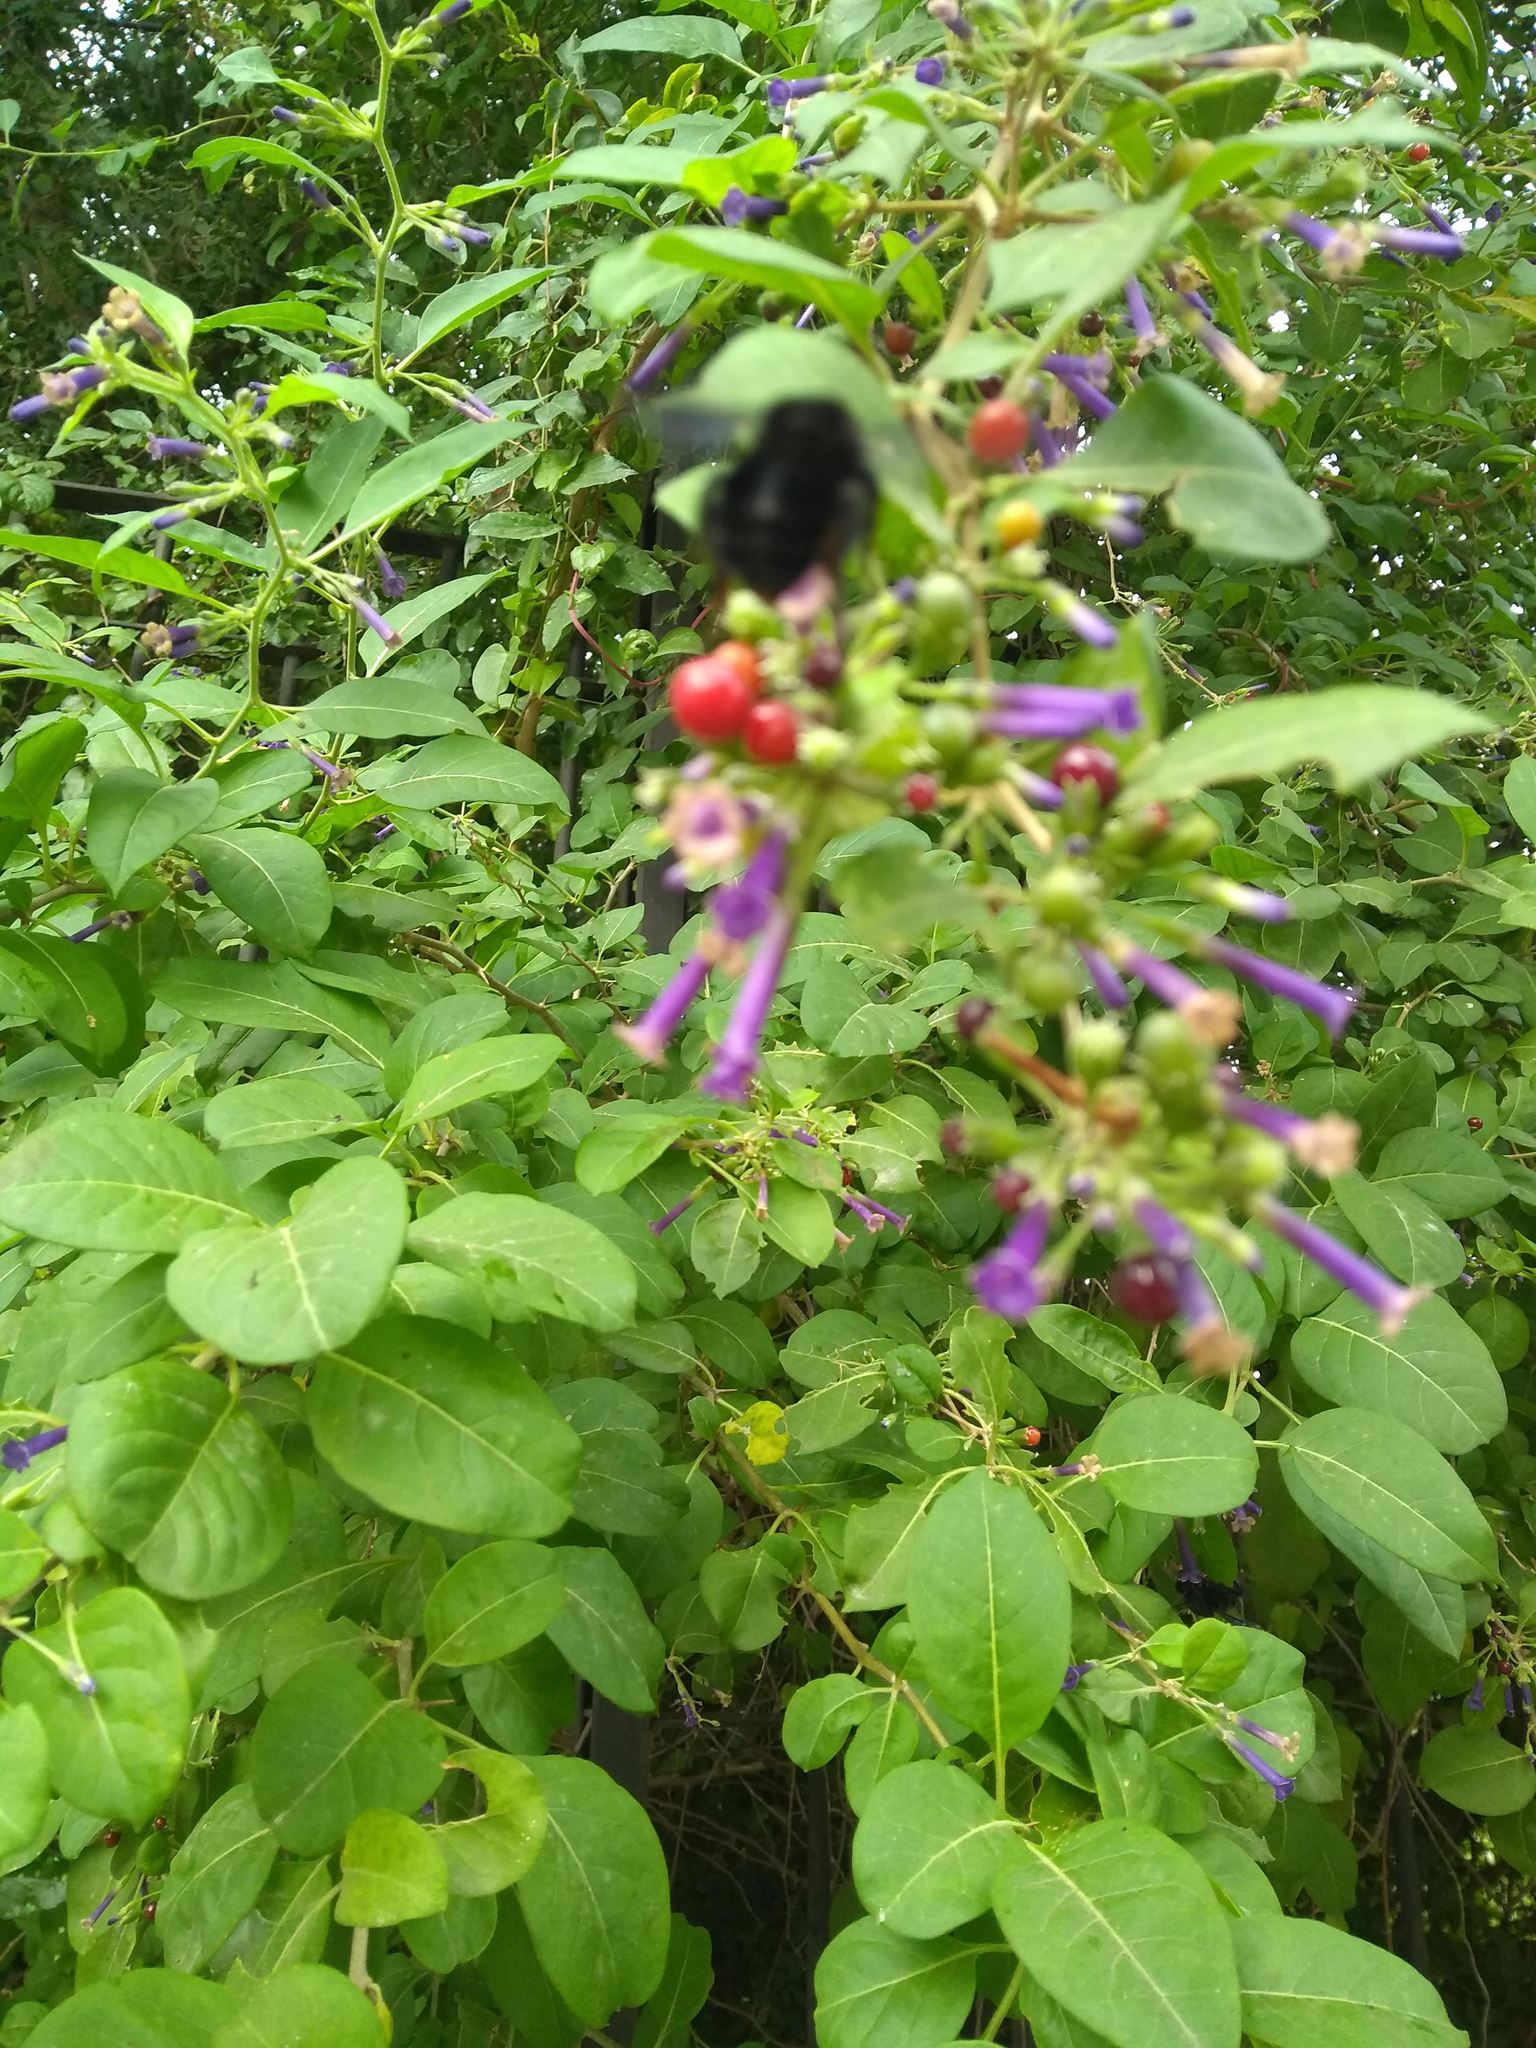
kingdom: Plantae
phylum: Tracheophyta
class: Magnoliopsida
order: Solanales
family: Solanaceae
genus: Lycium
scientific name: Lycium cestroides
